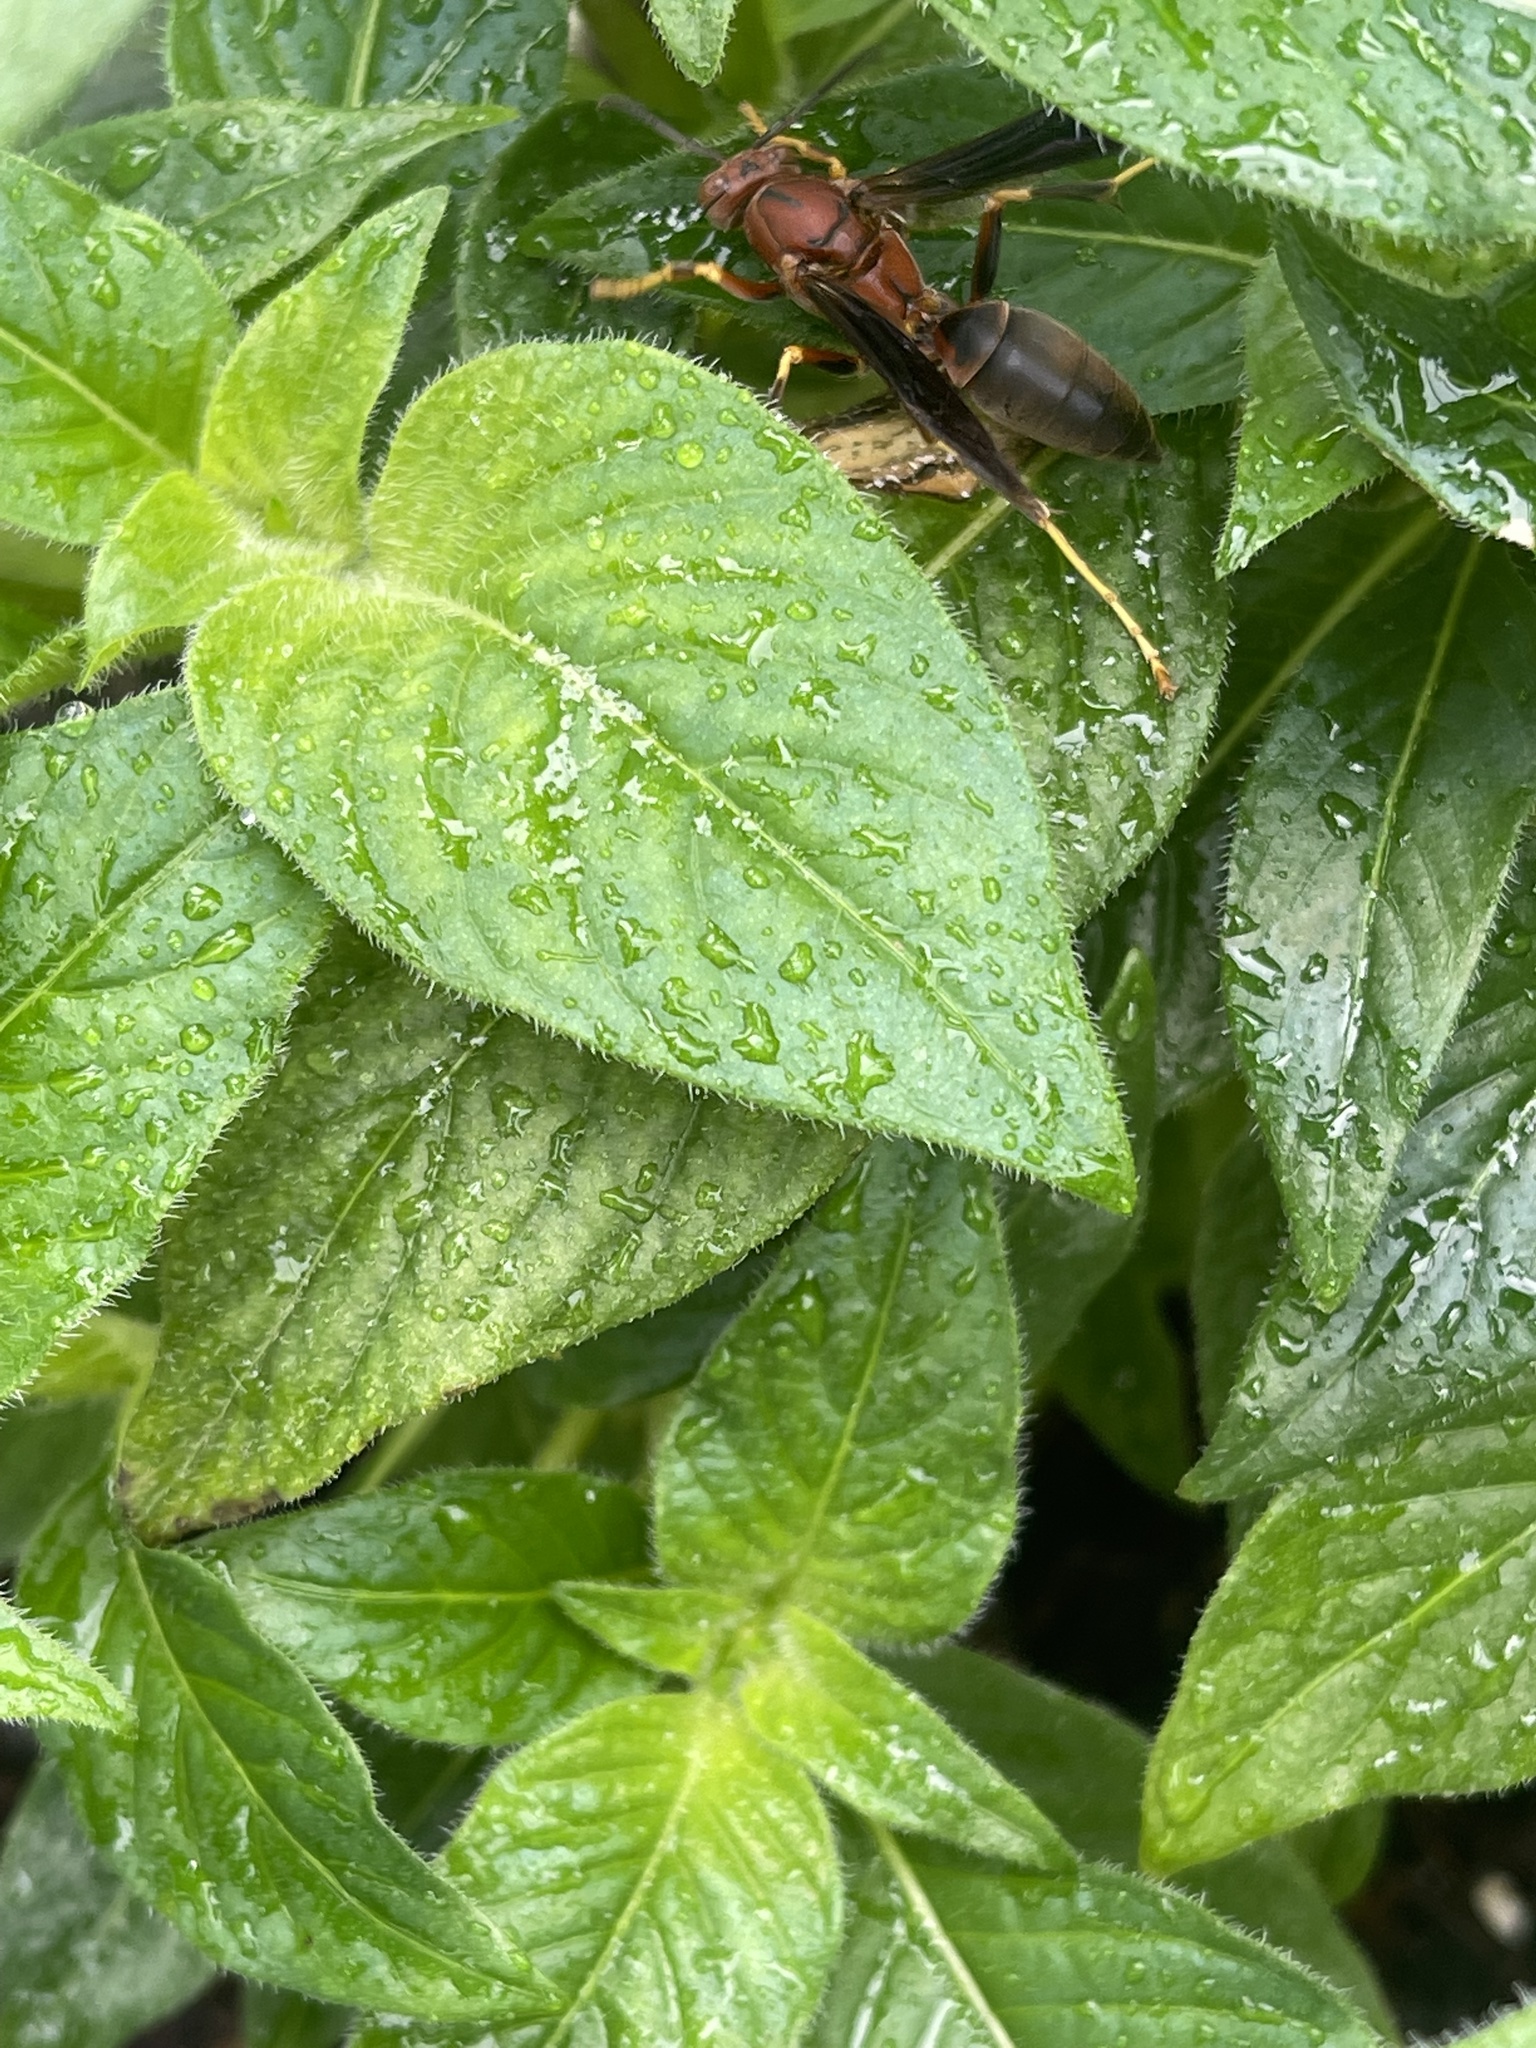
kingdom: Animalia
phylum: Arthropoda
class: Insecta
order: Hymenoptera
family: Eumenidae
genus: Polistes
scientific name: Polistes metricus
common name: Metric paper wasp
